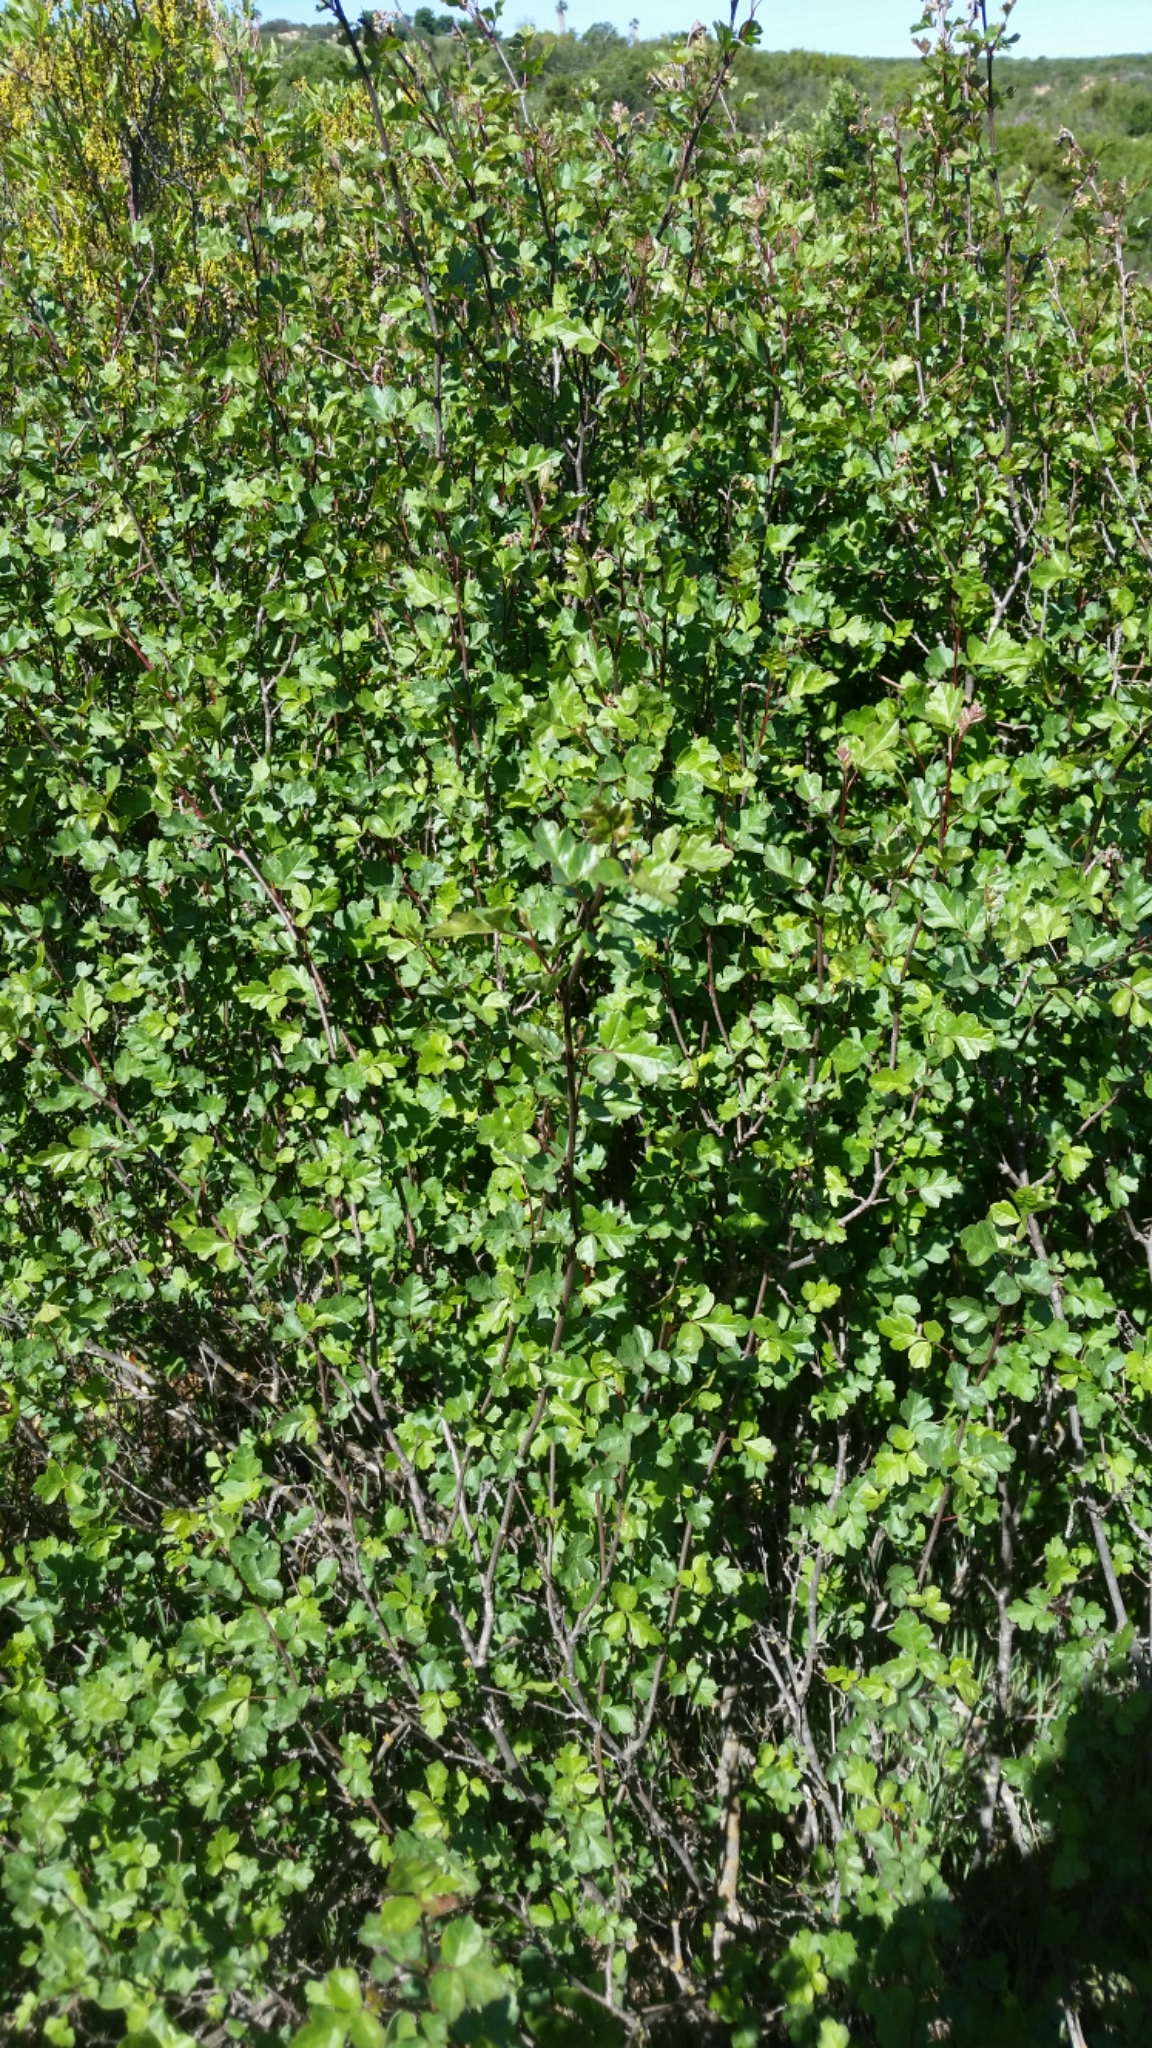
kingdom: Plantae
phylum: Tracheophyta
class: Magnoliopsida
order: Sapindales
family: Anacardiaceae
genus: Rhus
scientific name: Rhus aromatica
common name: Aromatic sumac
